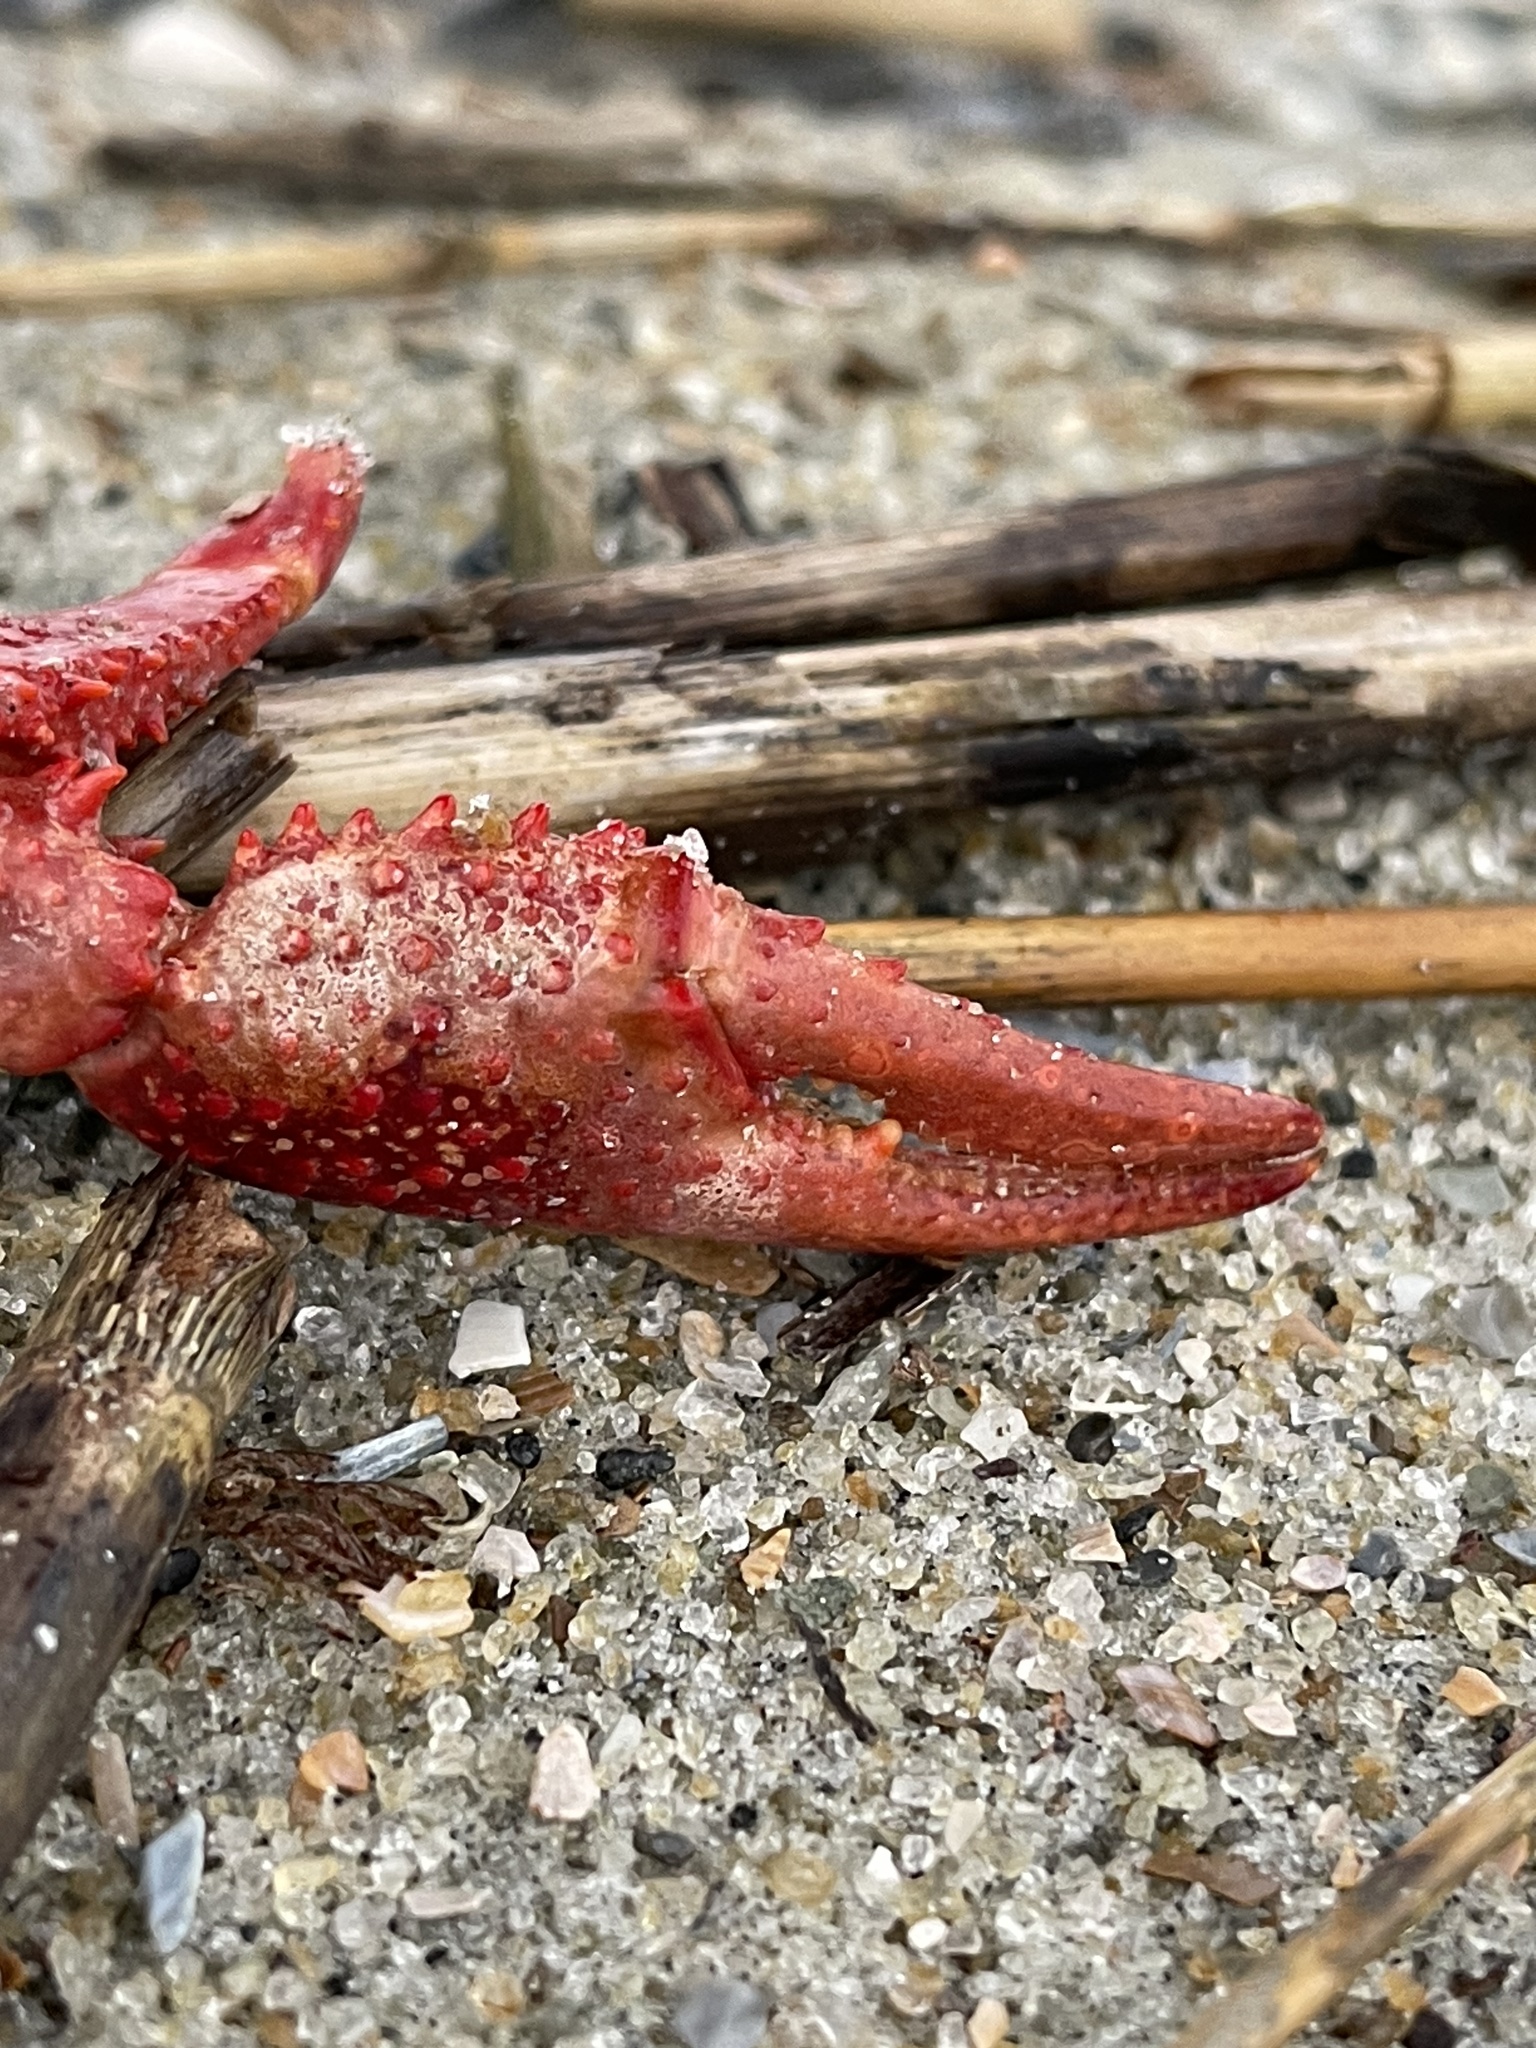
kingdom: Animalia
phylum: Arthropoda
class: Malacostraca
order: Decapoda
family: Cambaridae
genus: Procambarus
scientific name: Procambarus clarkii
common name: Red swamp crayfish
